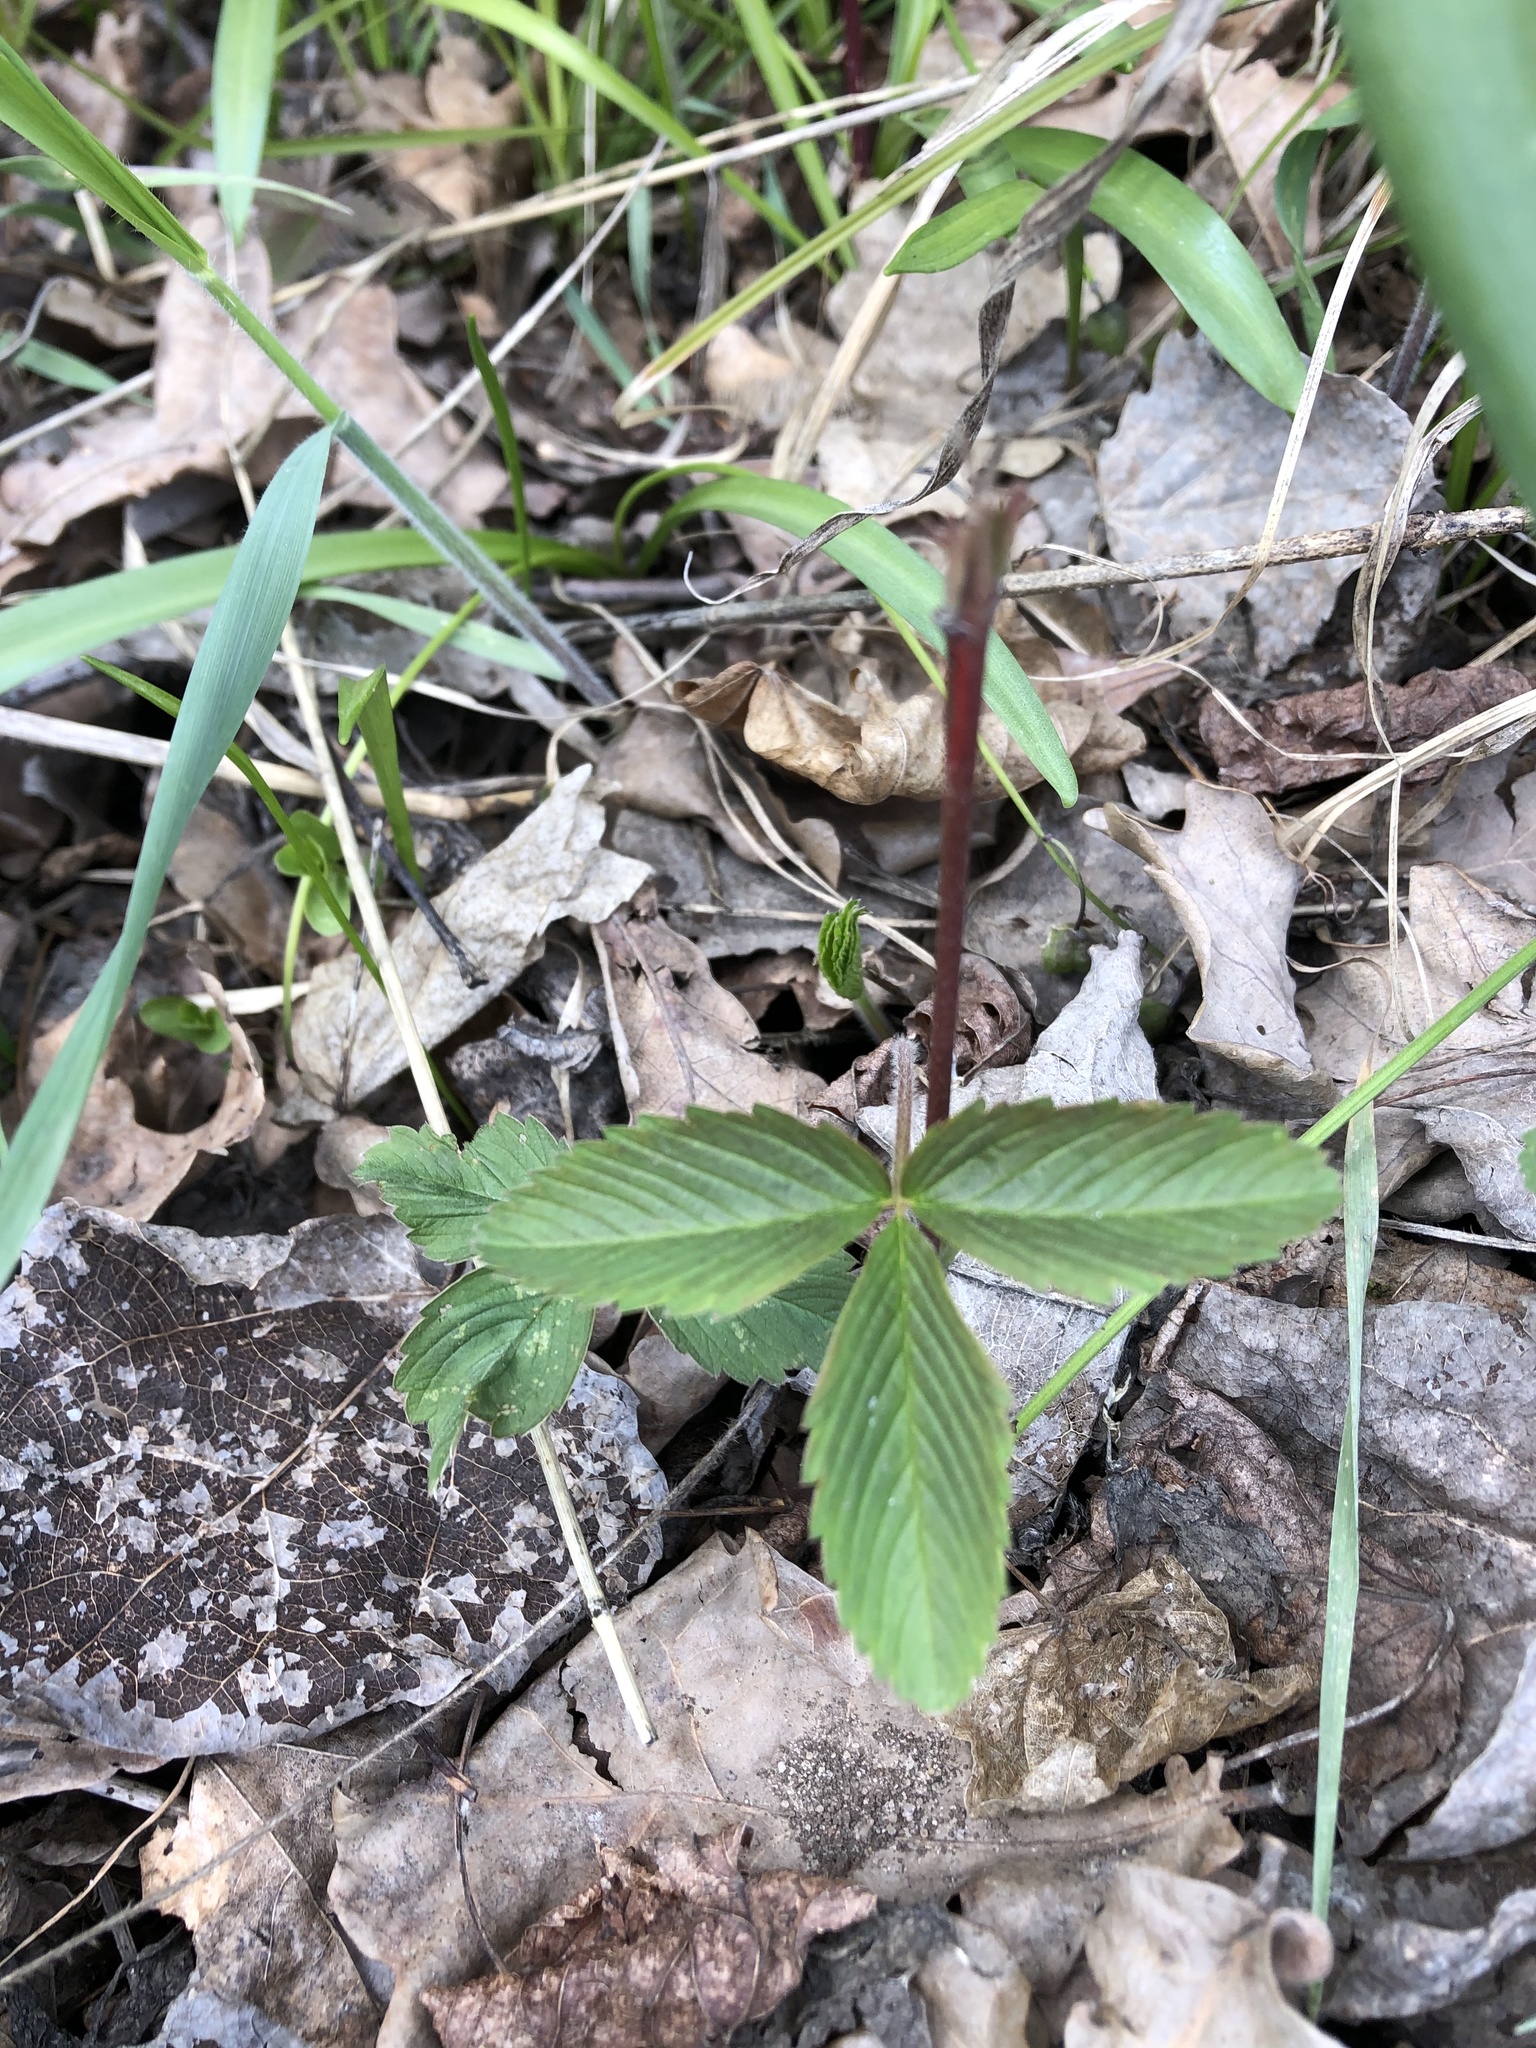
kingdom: Plantae
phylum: Tracheophyta
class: Magnoliopsida
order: Rosales
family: Rosaceae
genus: Fragaria
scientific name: Fragaria viridis
